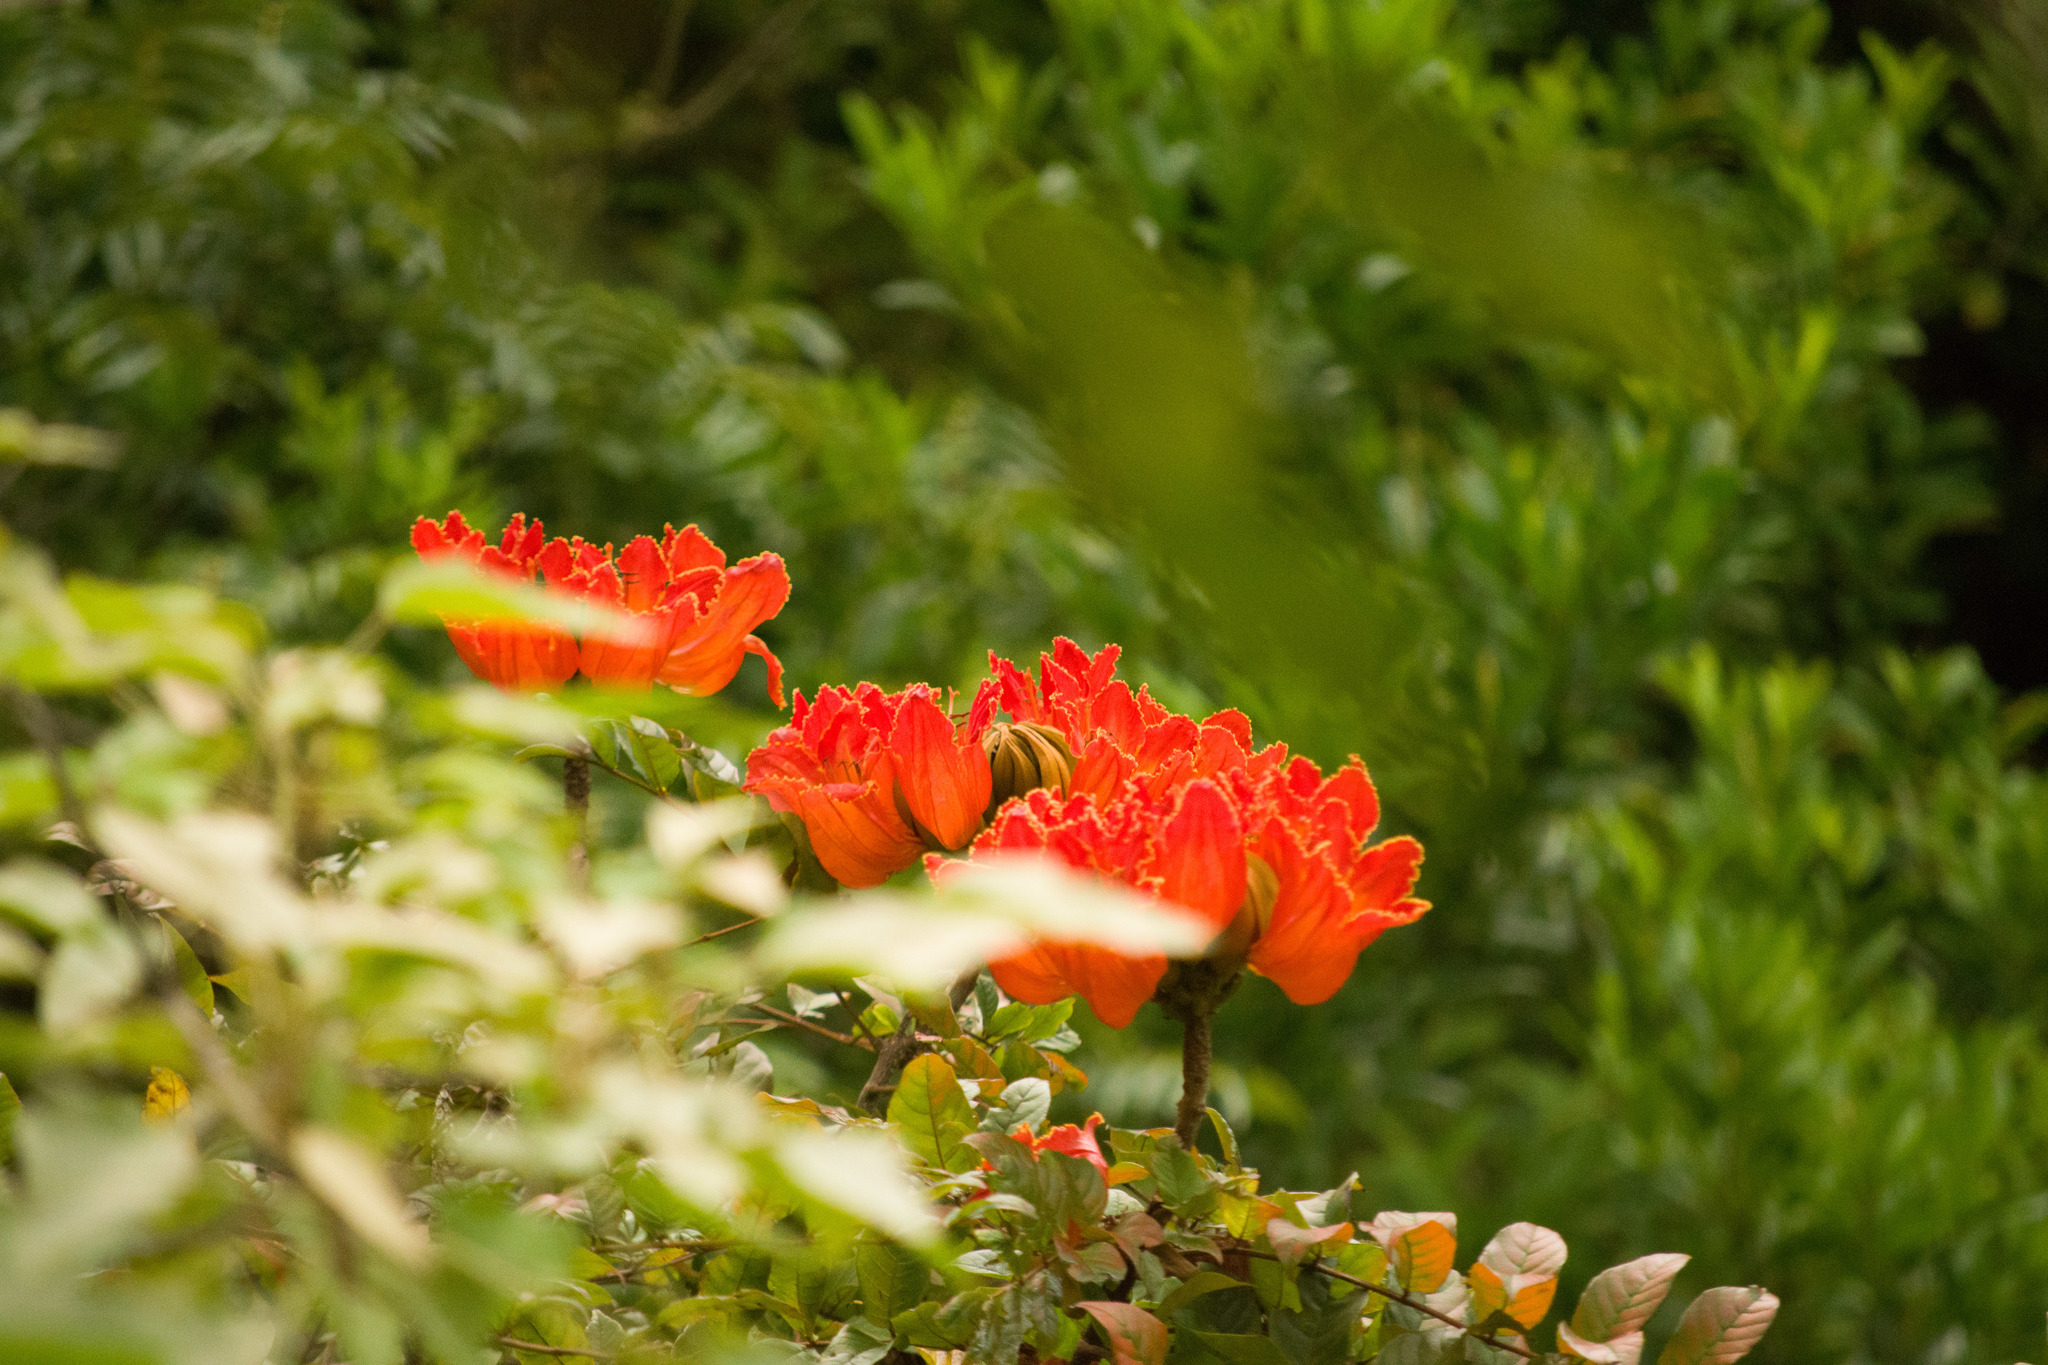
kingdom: Plantae
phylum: Tracheophyta
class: Magnoliopsida
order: Lamiales
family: Bignoniaceae
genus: Spathodea
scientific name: Spathodea campanulata
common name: African tuliptree
